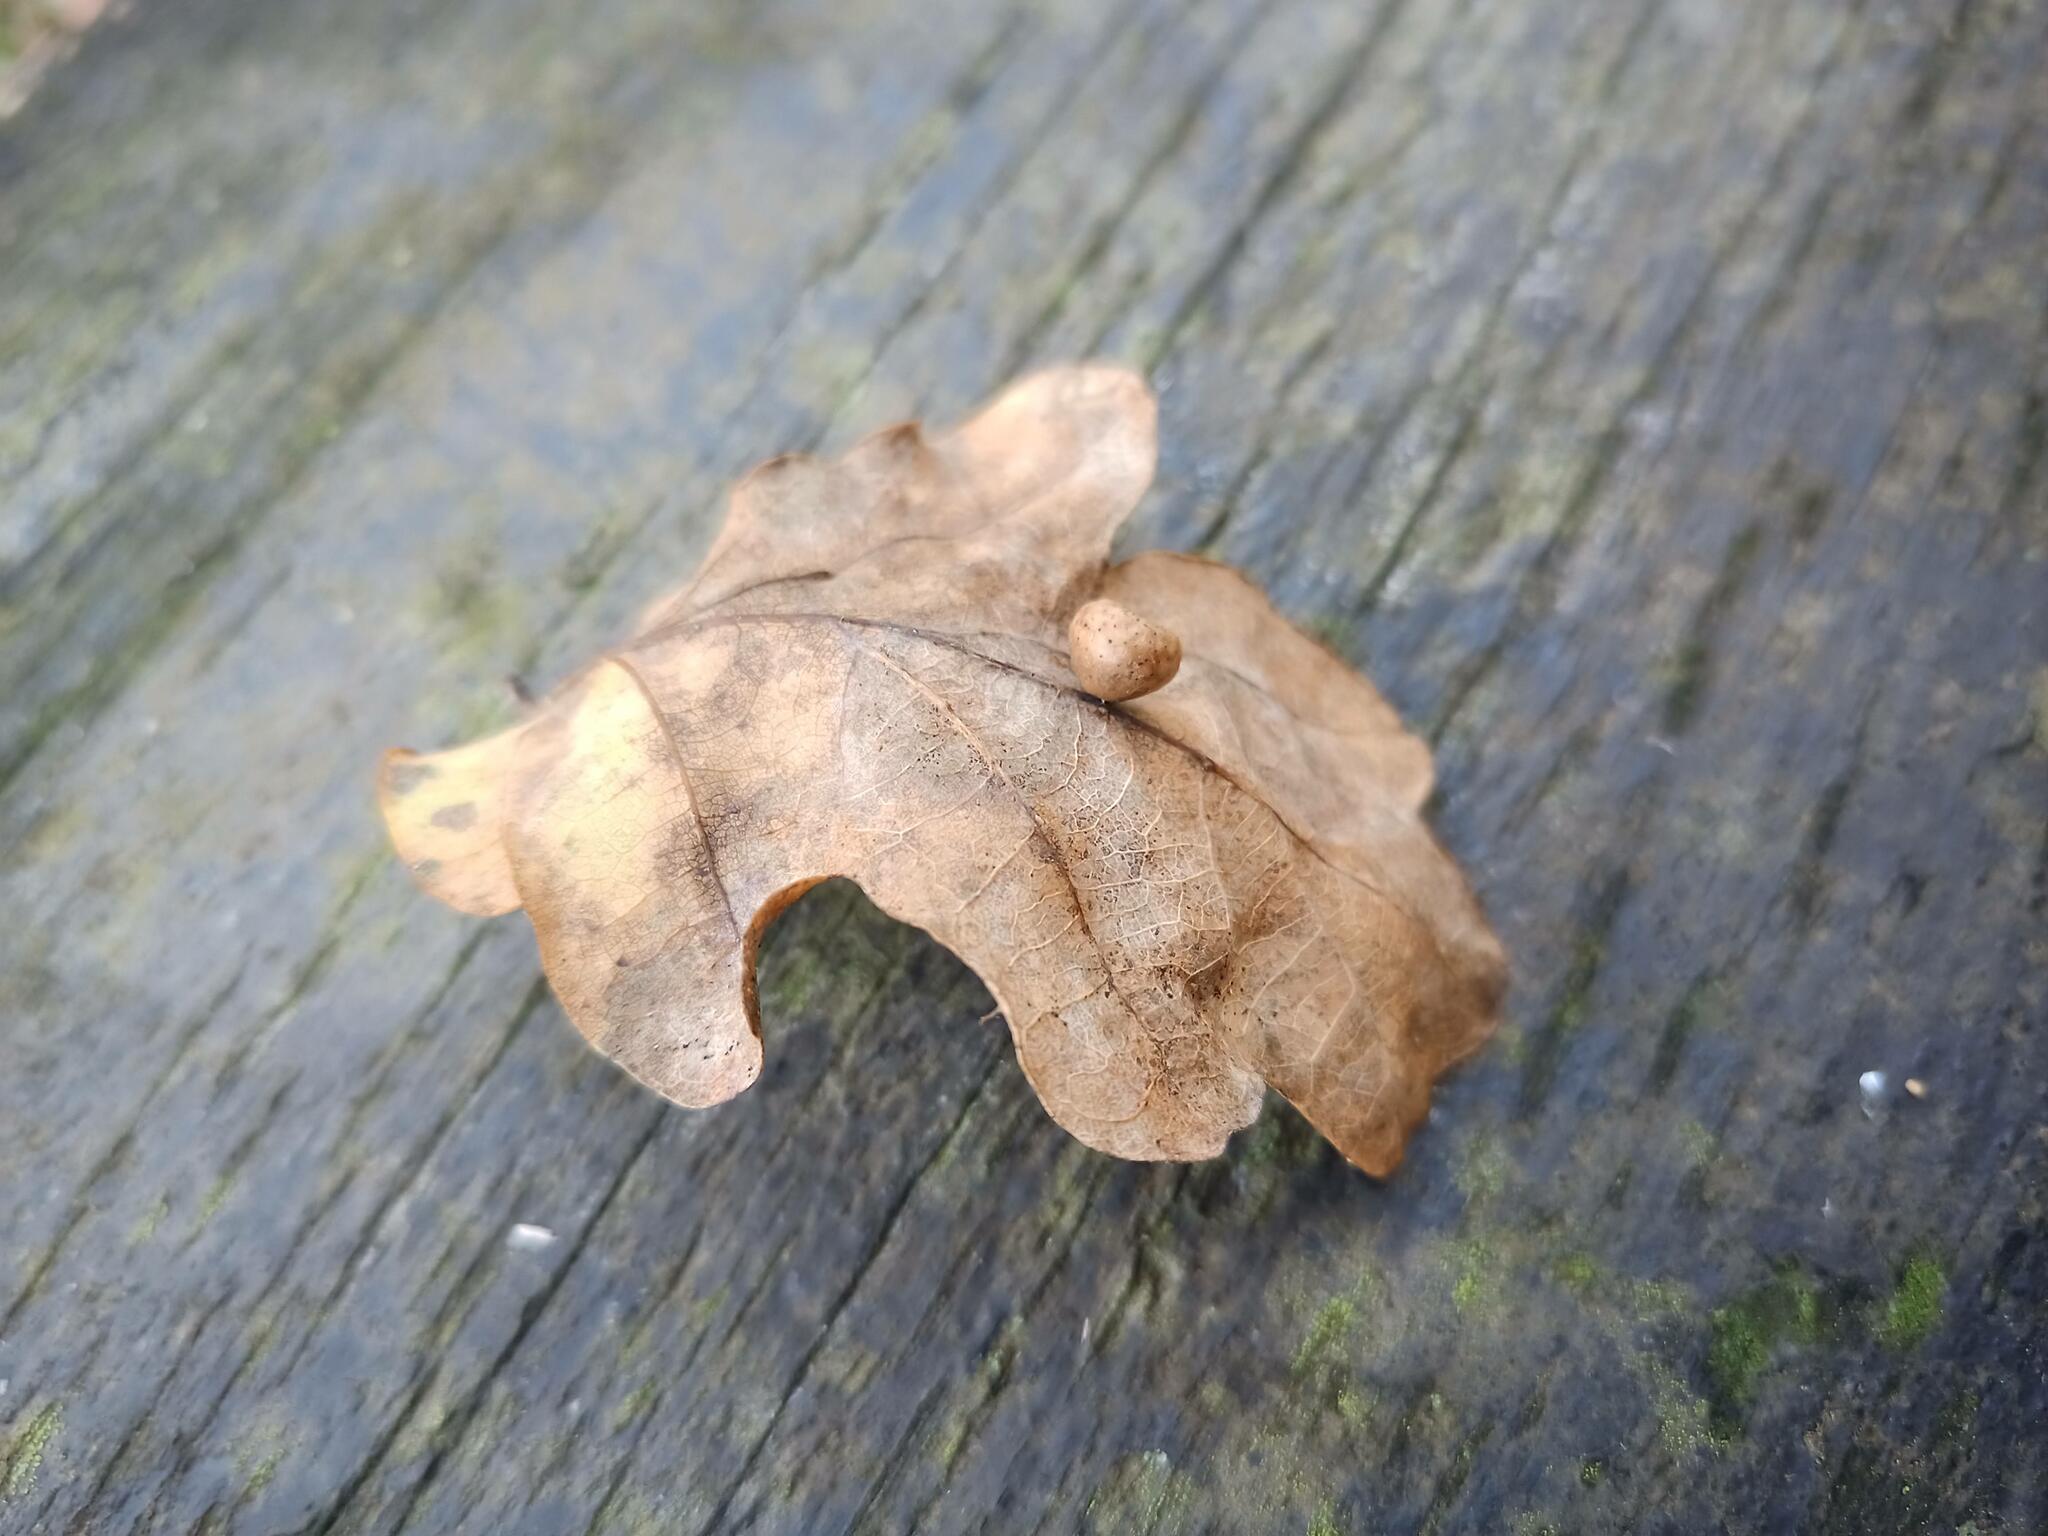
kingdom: Animalia
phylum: Arthropoda
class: Insecta
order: Hymenoptera
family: Cynipidae
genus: Cynips
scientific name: Cynips disticha
